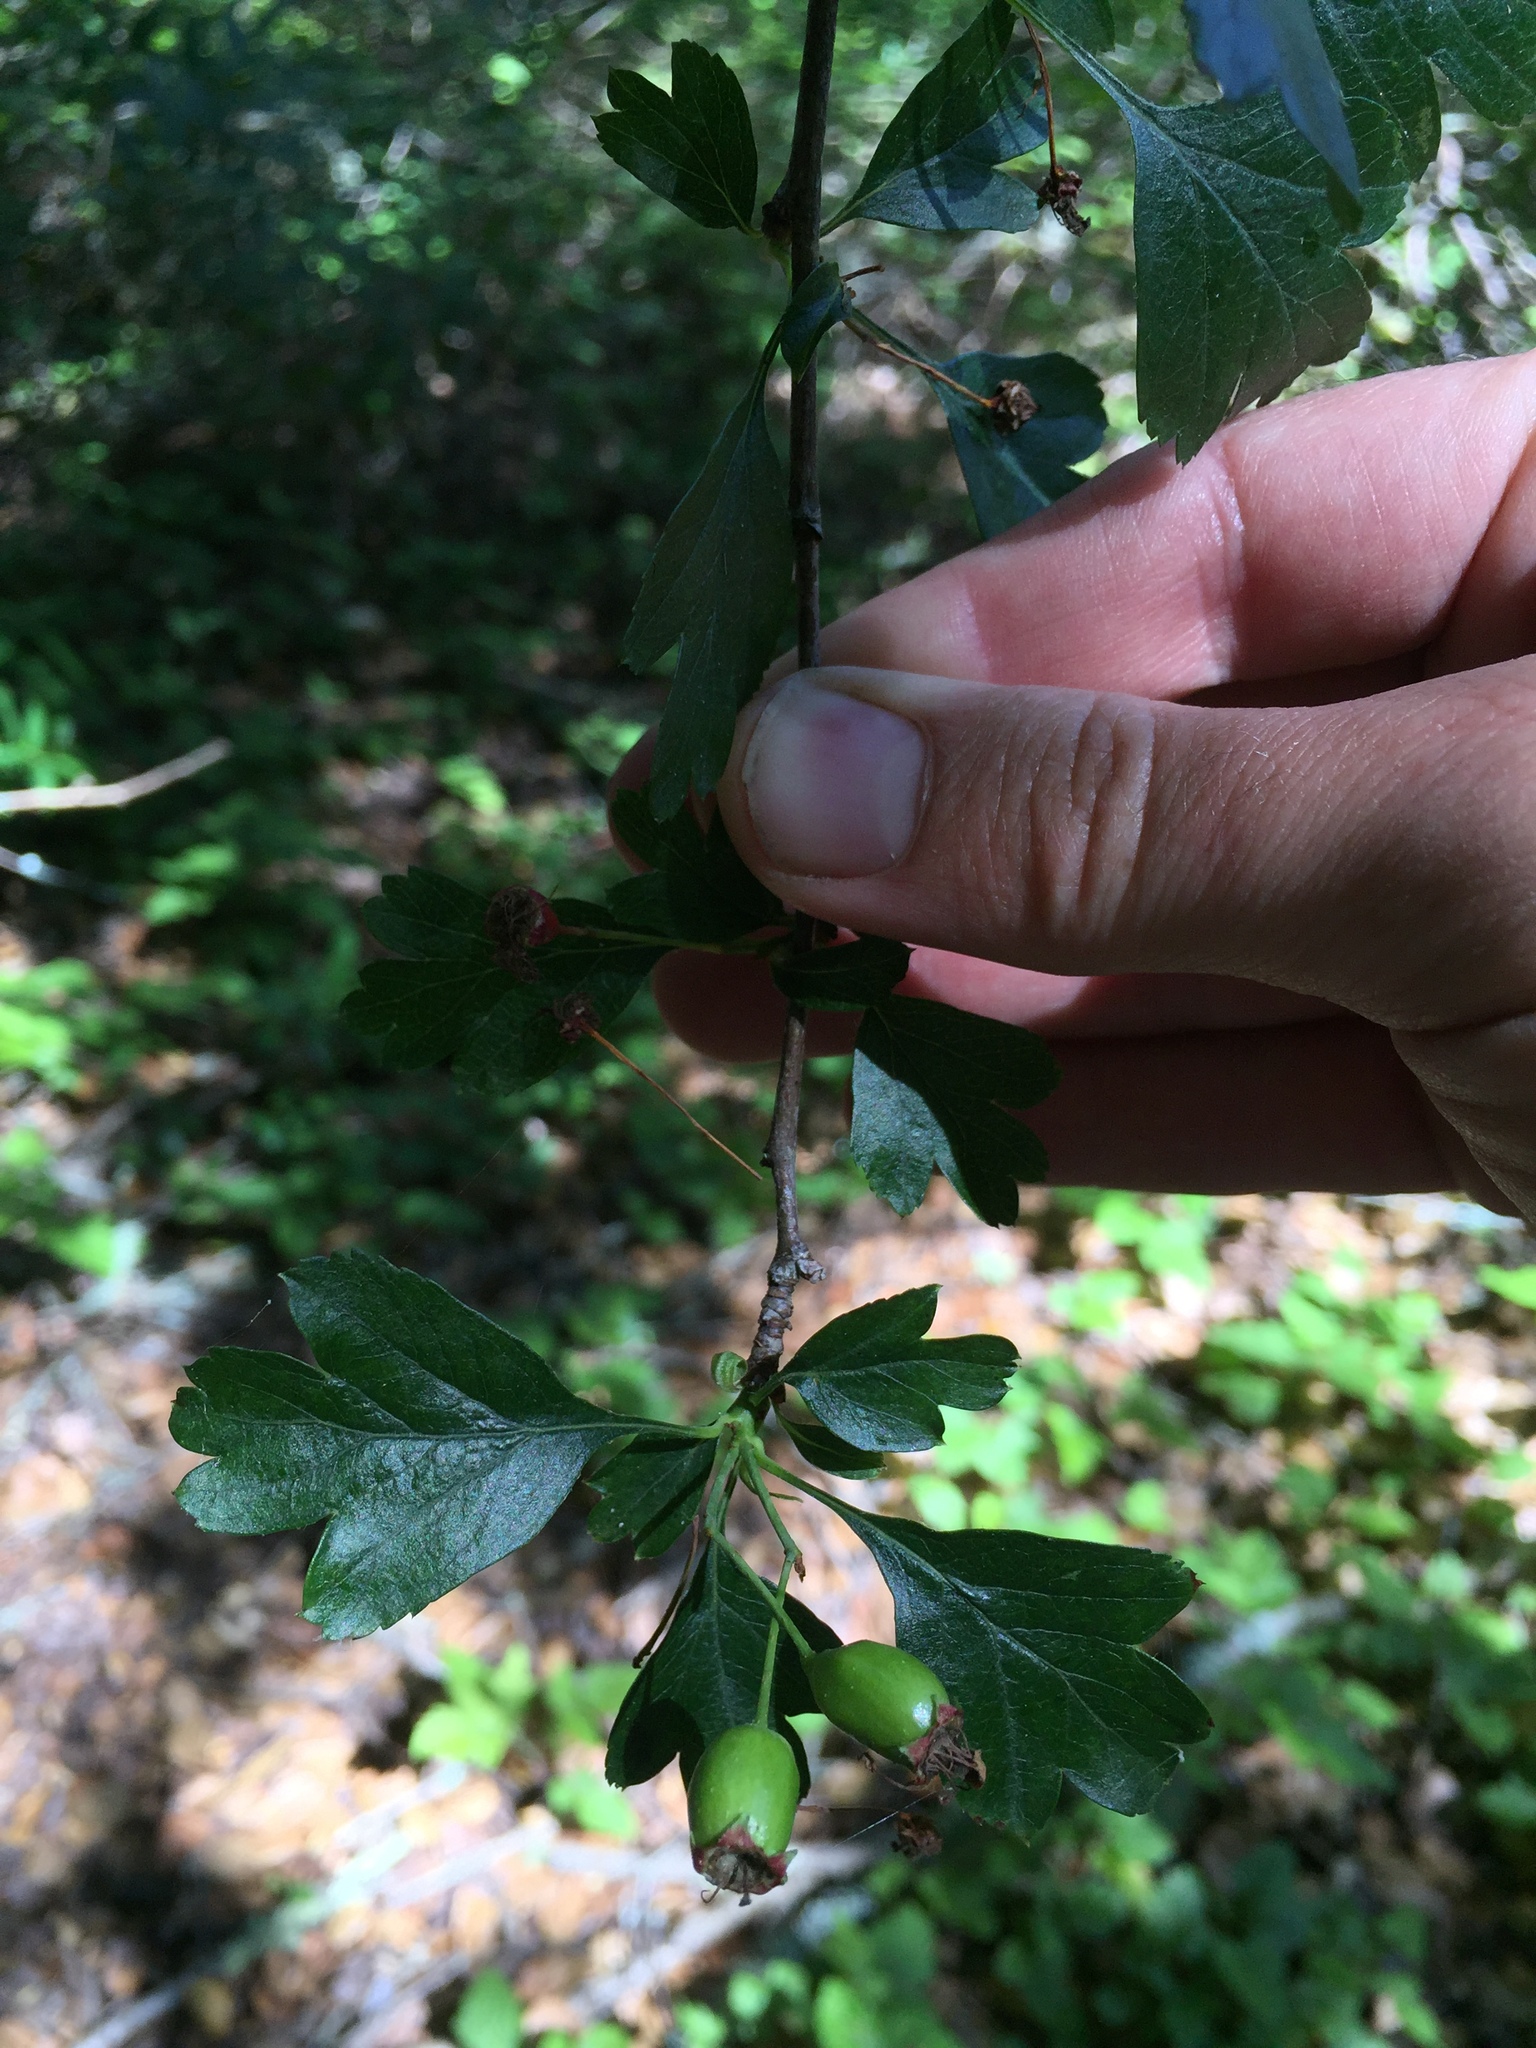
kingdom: Plantae
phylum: Tracheophyta
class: Magnoliopsida
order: Rosales
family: Rosaceae
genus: Crataegus
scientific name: Crataegus monogyna
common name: Hawthorn
